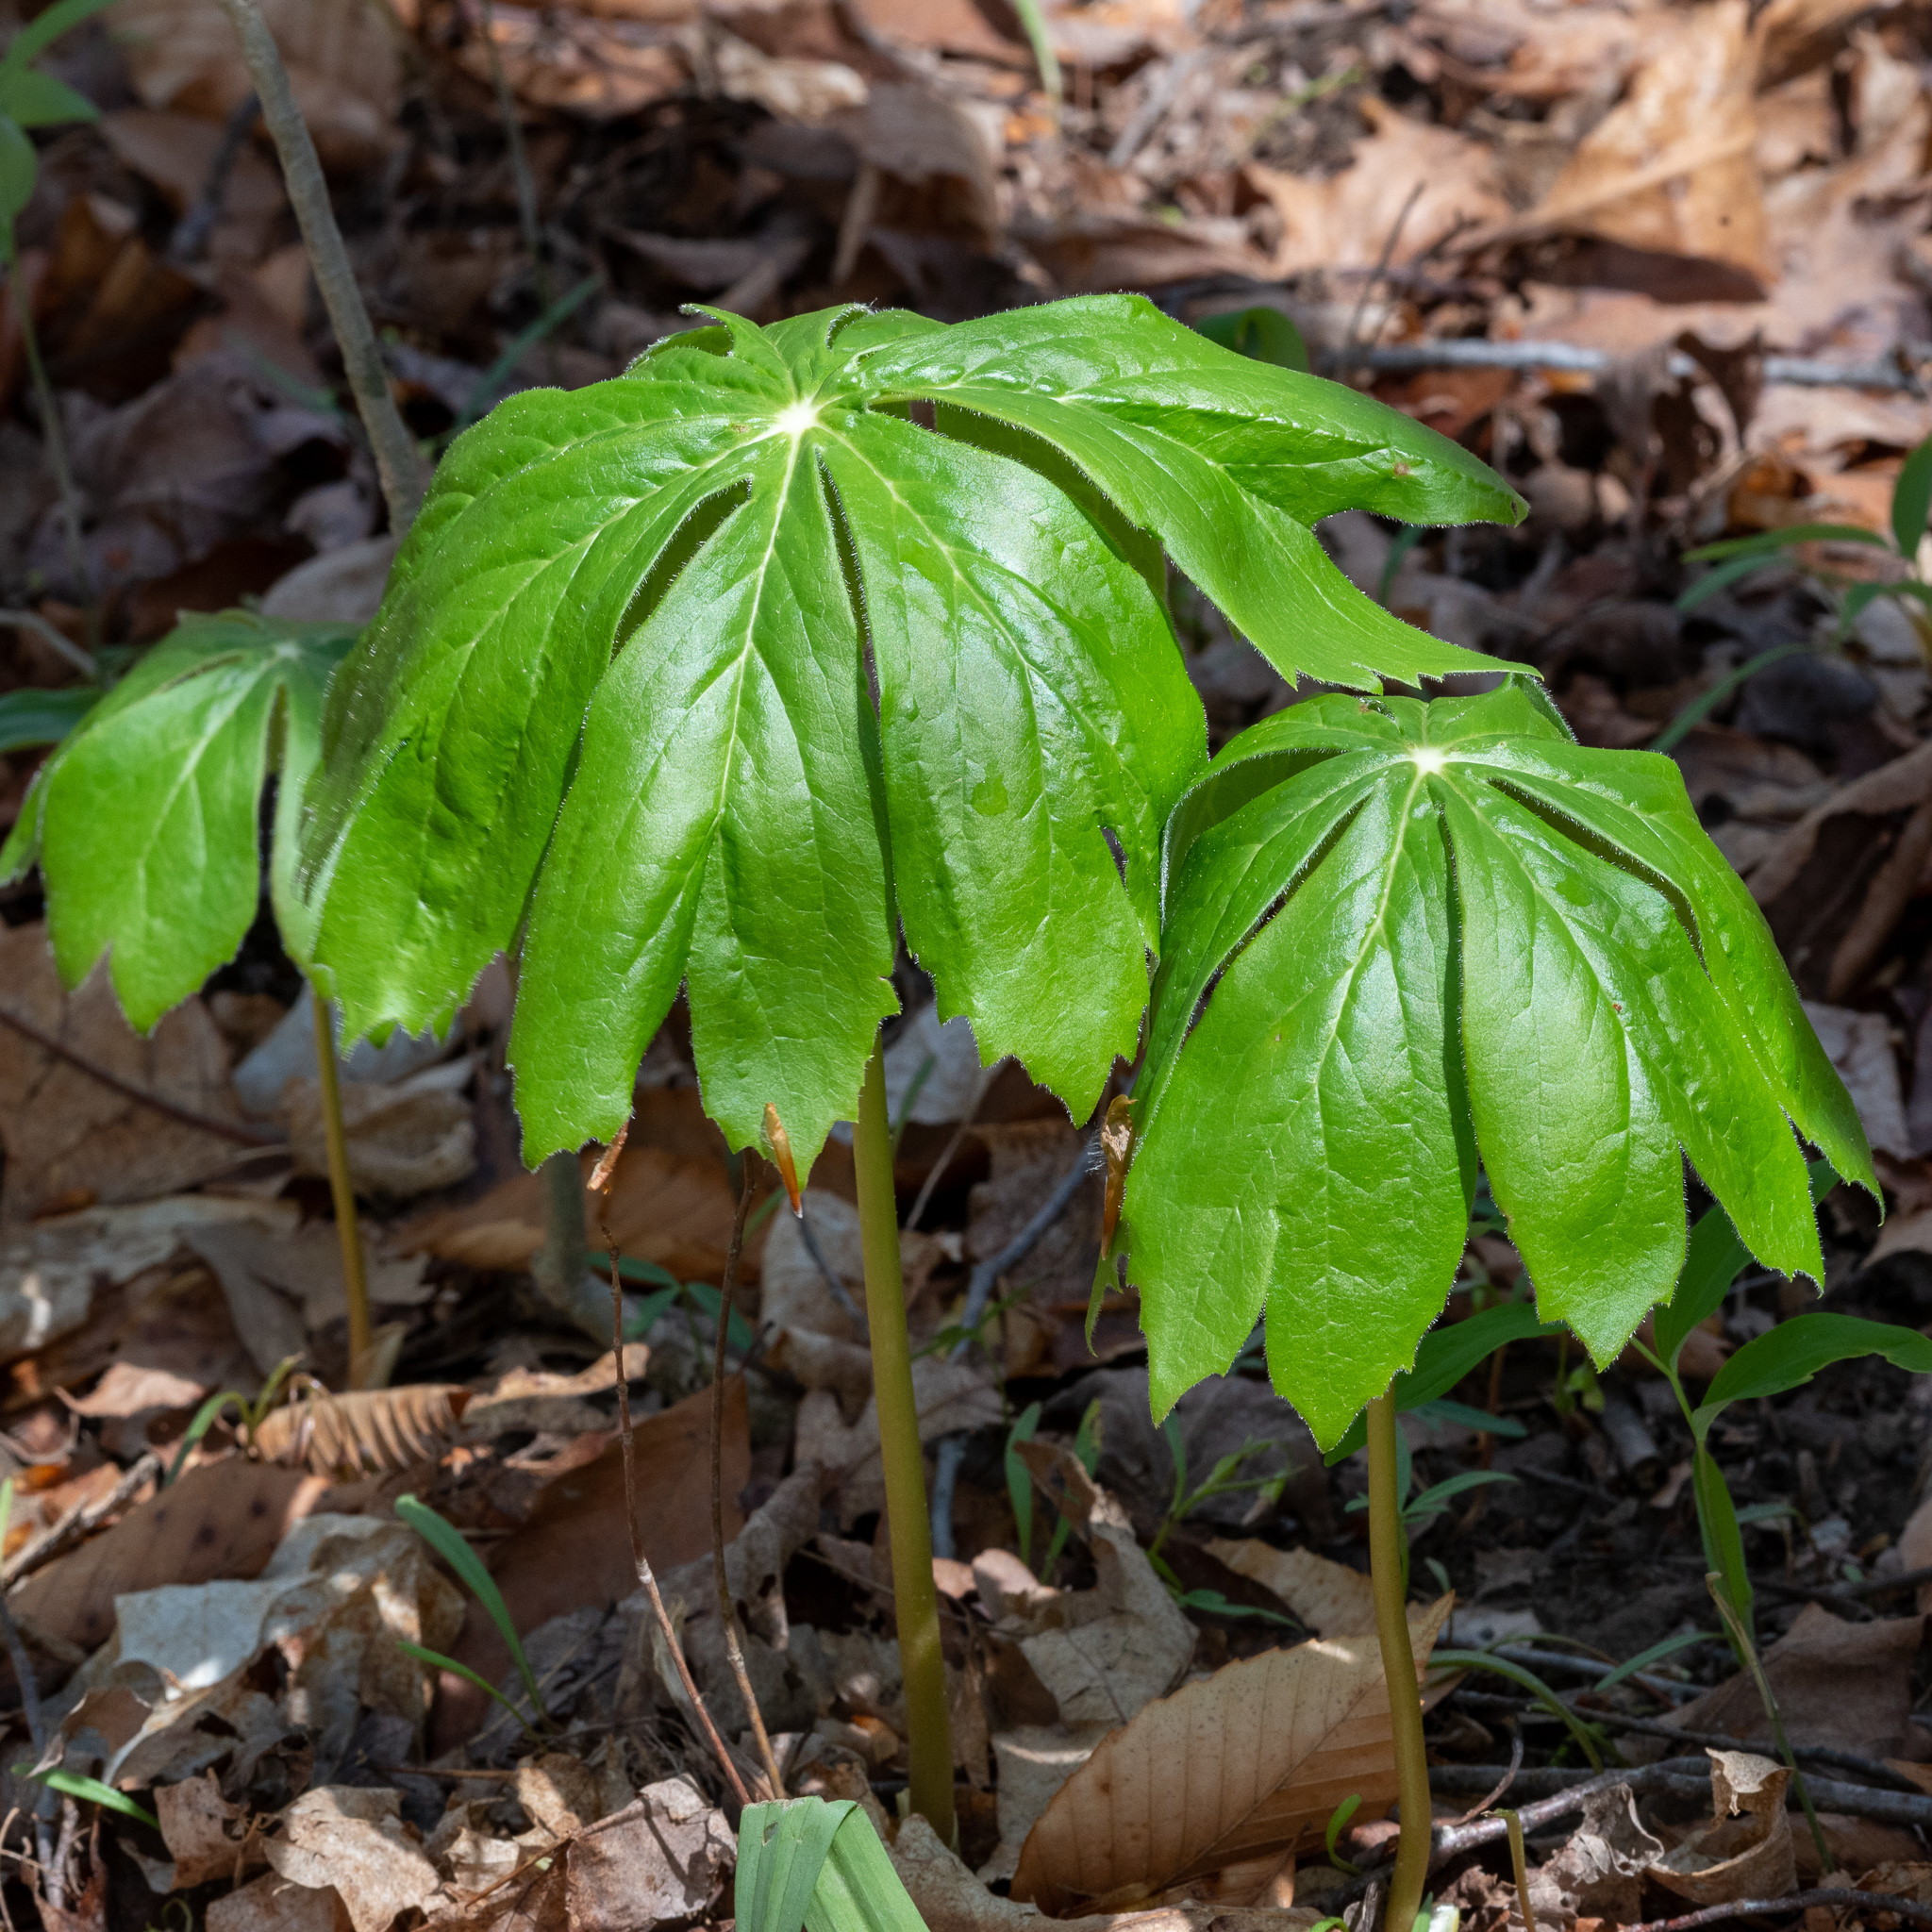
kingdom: Plantae
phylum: Tracheophyta
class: Magnoliopsida
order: Ranunculales
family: Berberidaceae
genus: Podophyllum
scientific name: Podophyllum peltatum
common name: Wild mandrake
